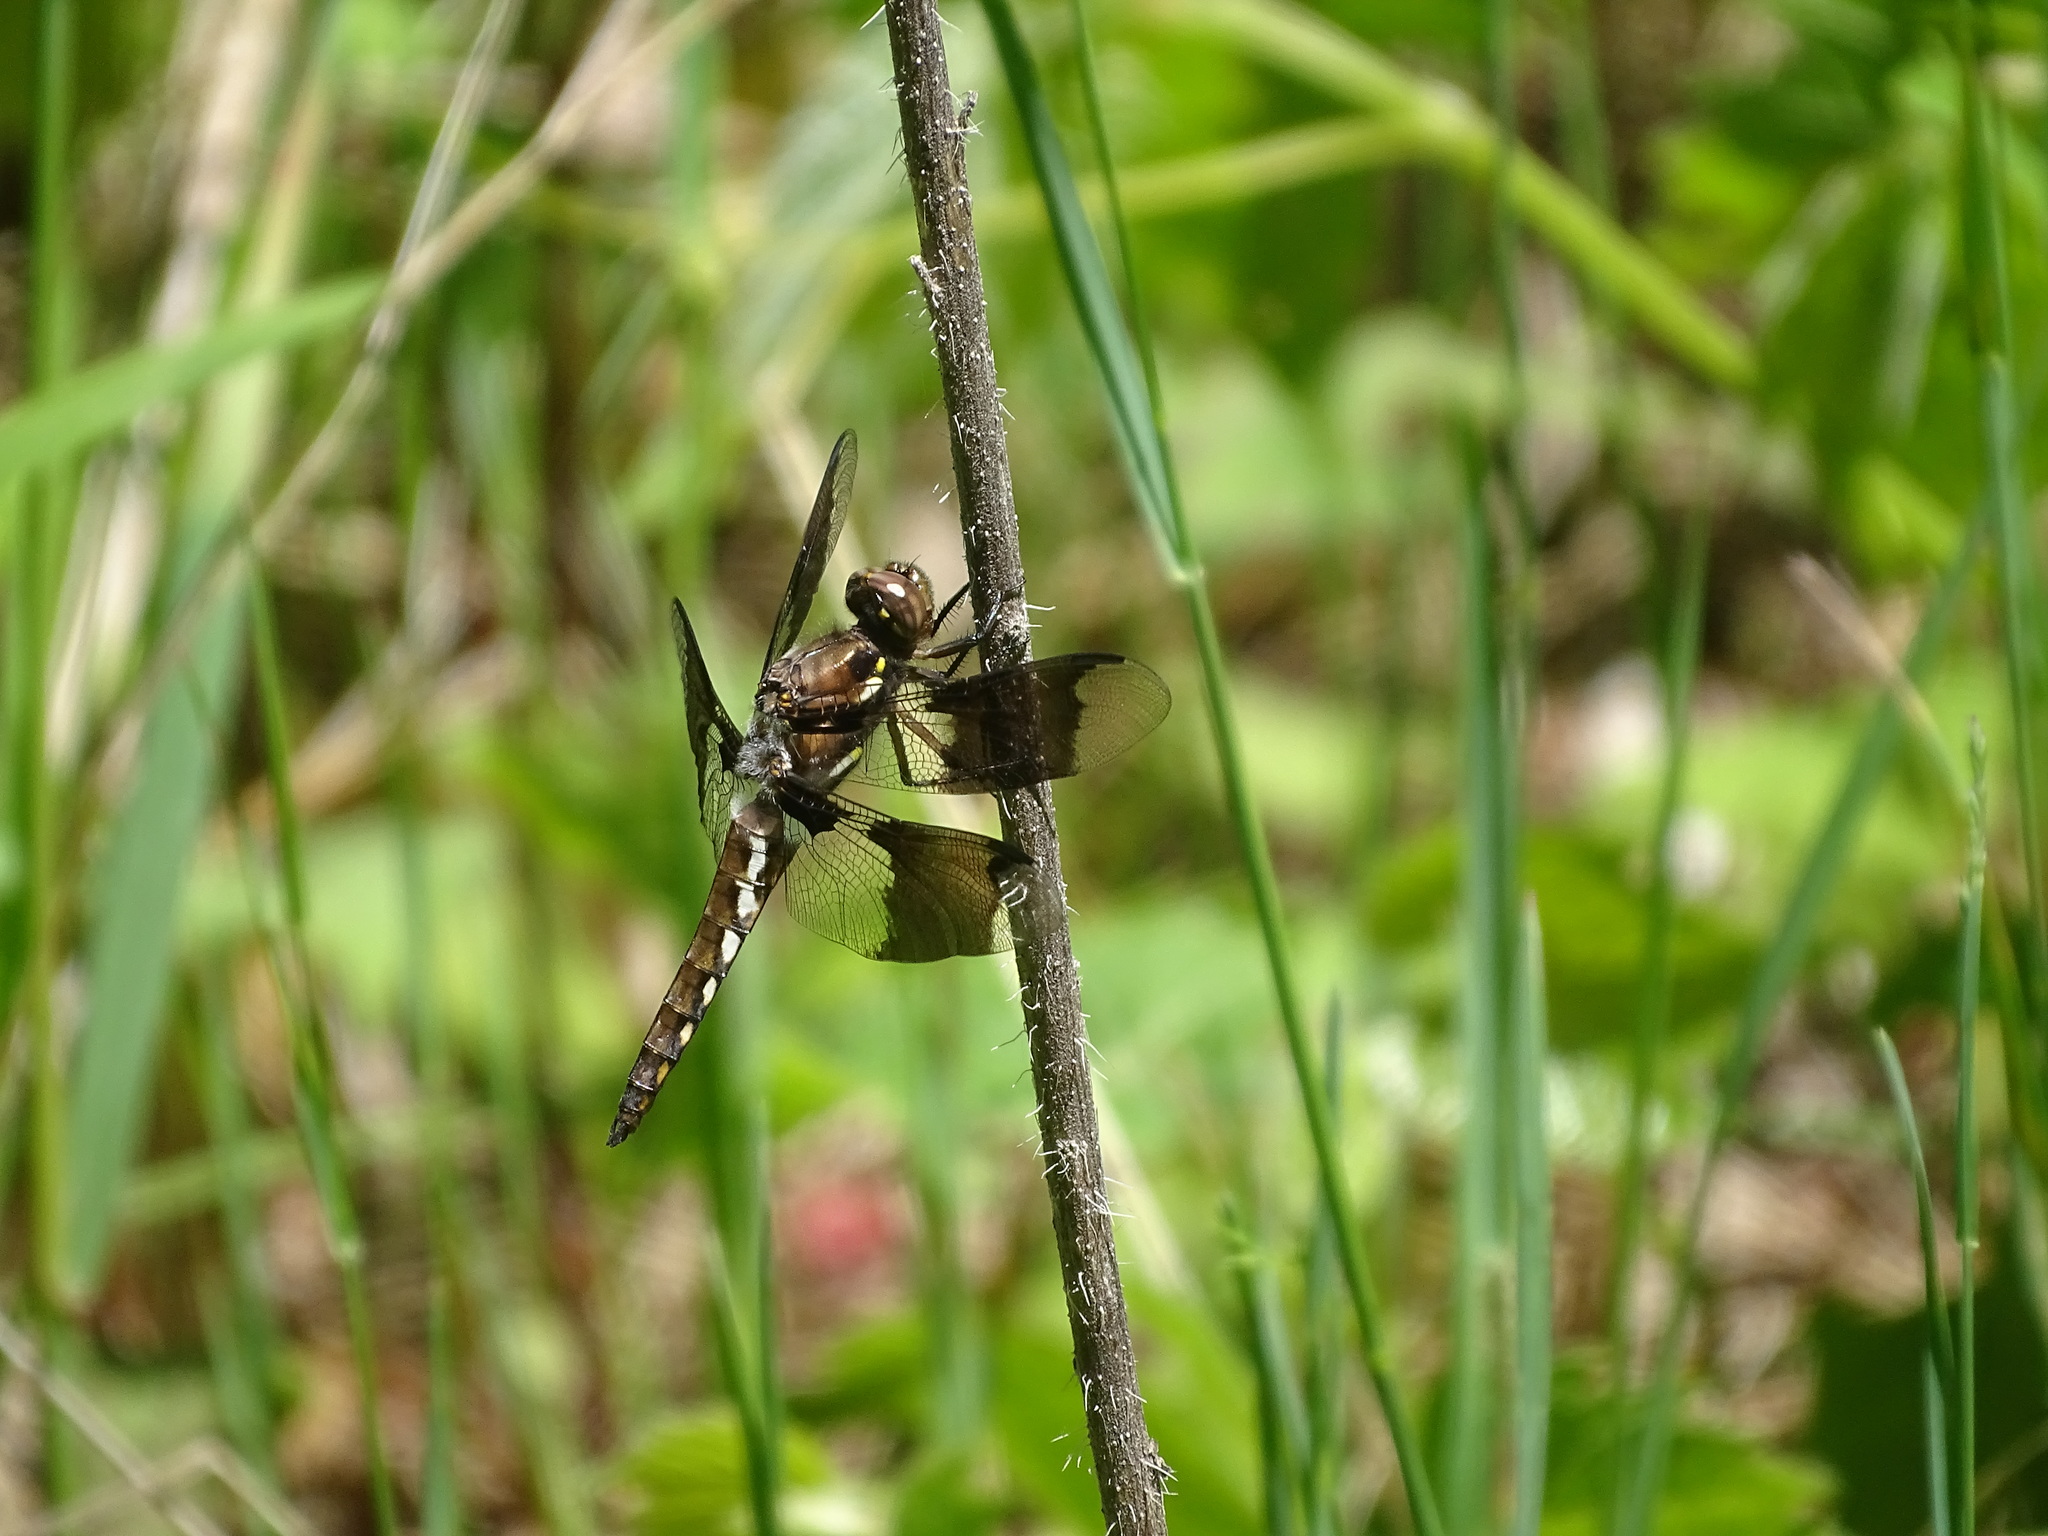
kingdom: Animalia
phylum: Arthropoda
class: Insecta
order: Odonata
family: Libellulidae
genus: Plathemis
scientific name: Plathemis lydia
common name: Common whitetail
